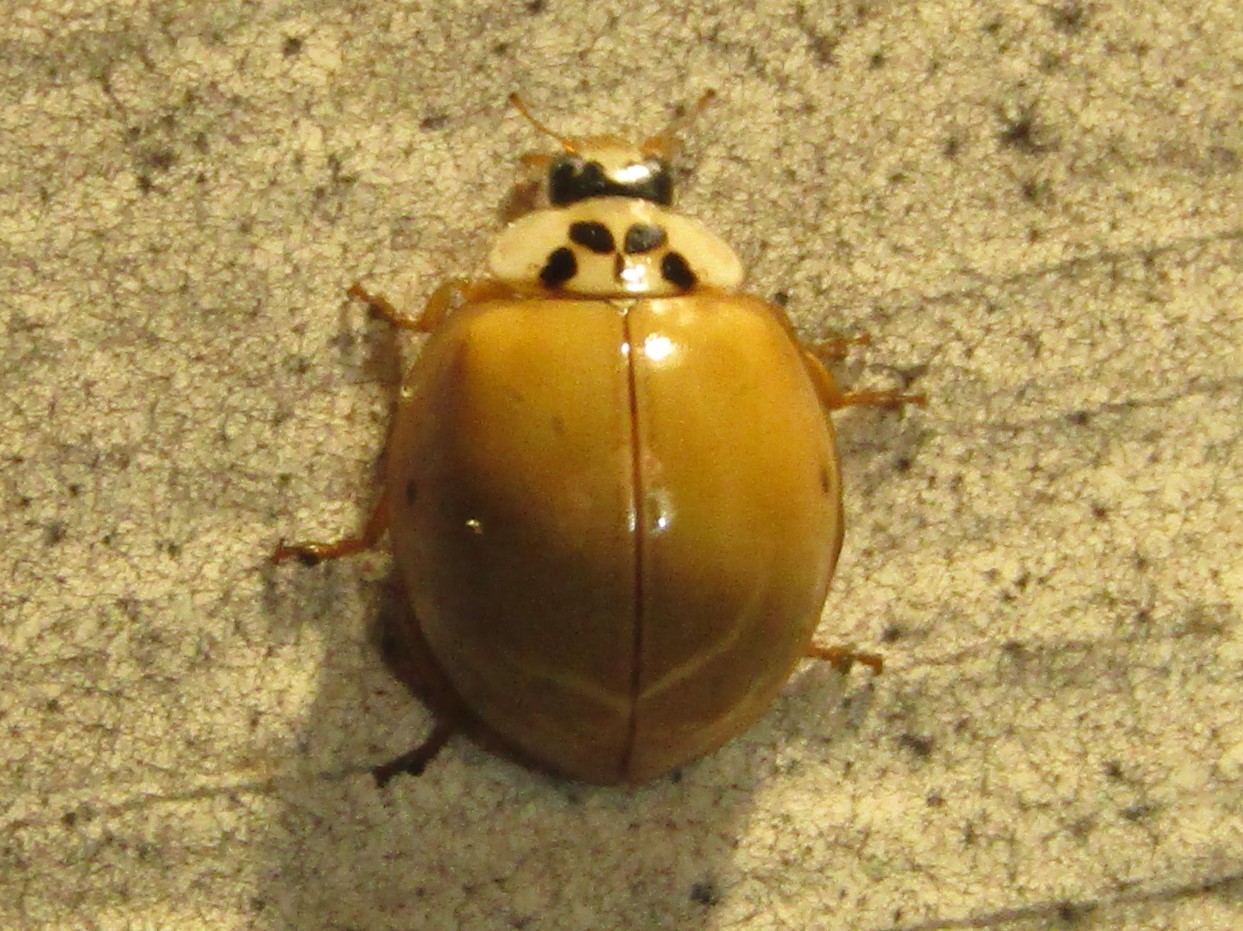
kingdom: Animalia
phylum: Arthropoda
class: Insecta
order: Coleoptera
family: Coccinellidae
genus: Harmonia
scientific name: Harmonia axyridis
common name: Harlequin ladybird
